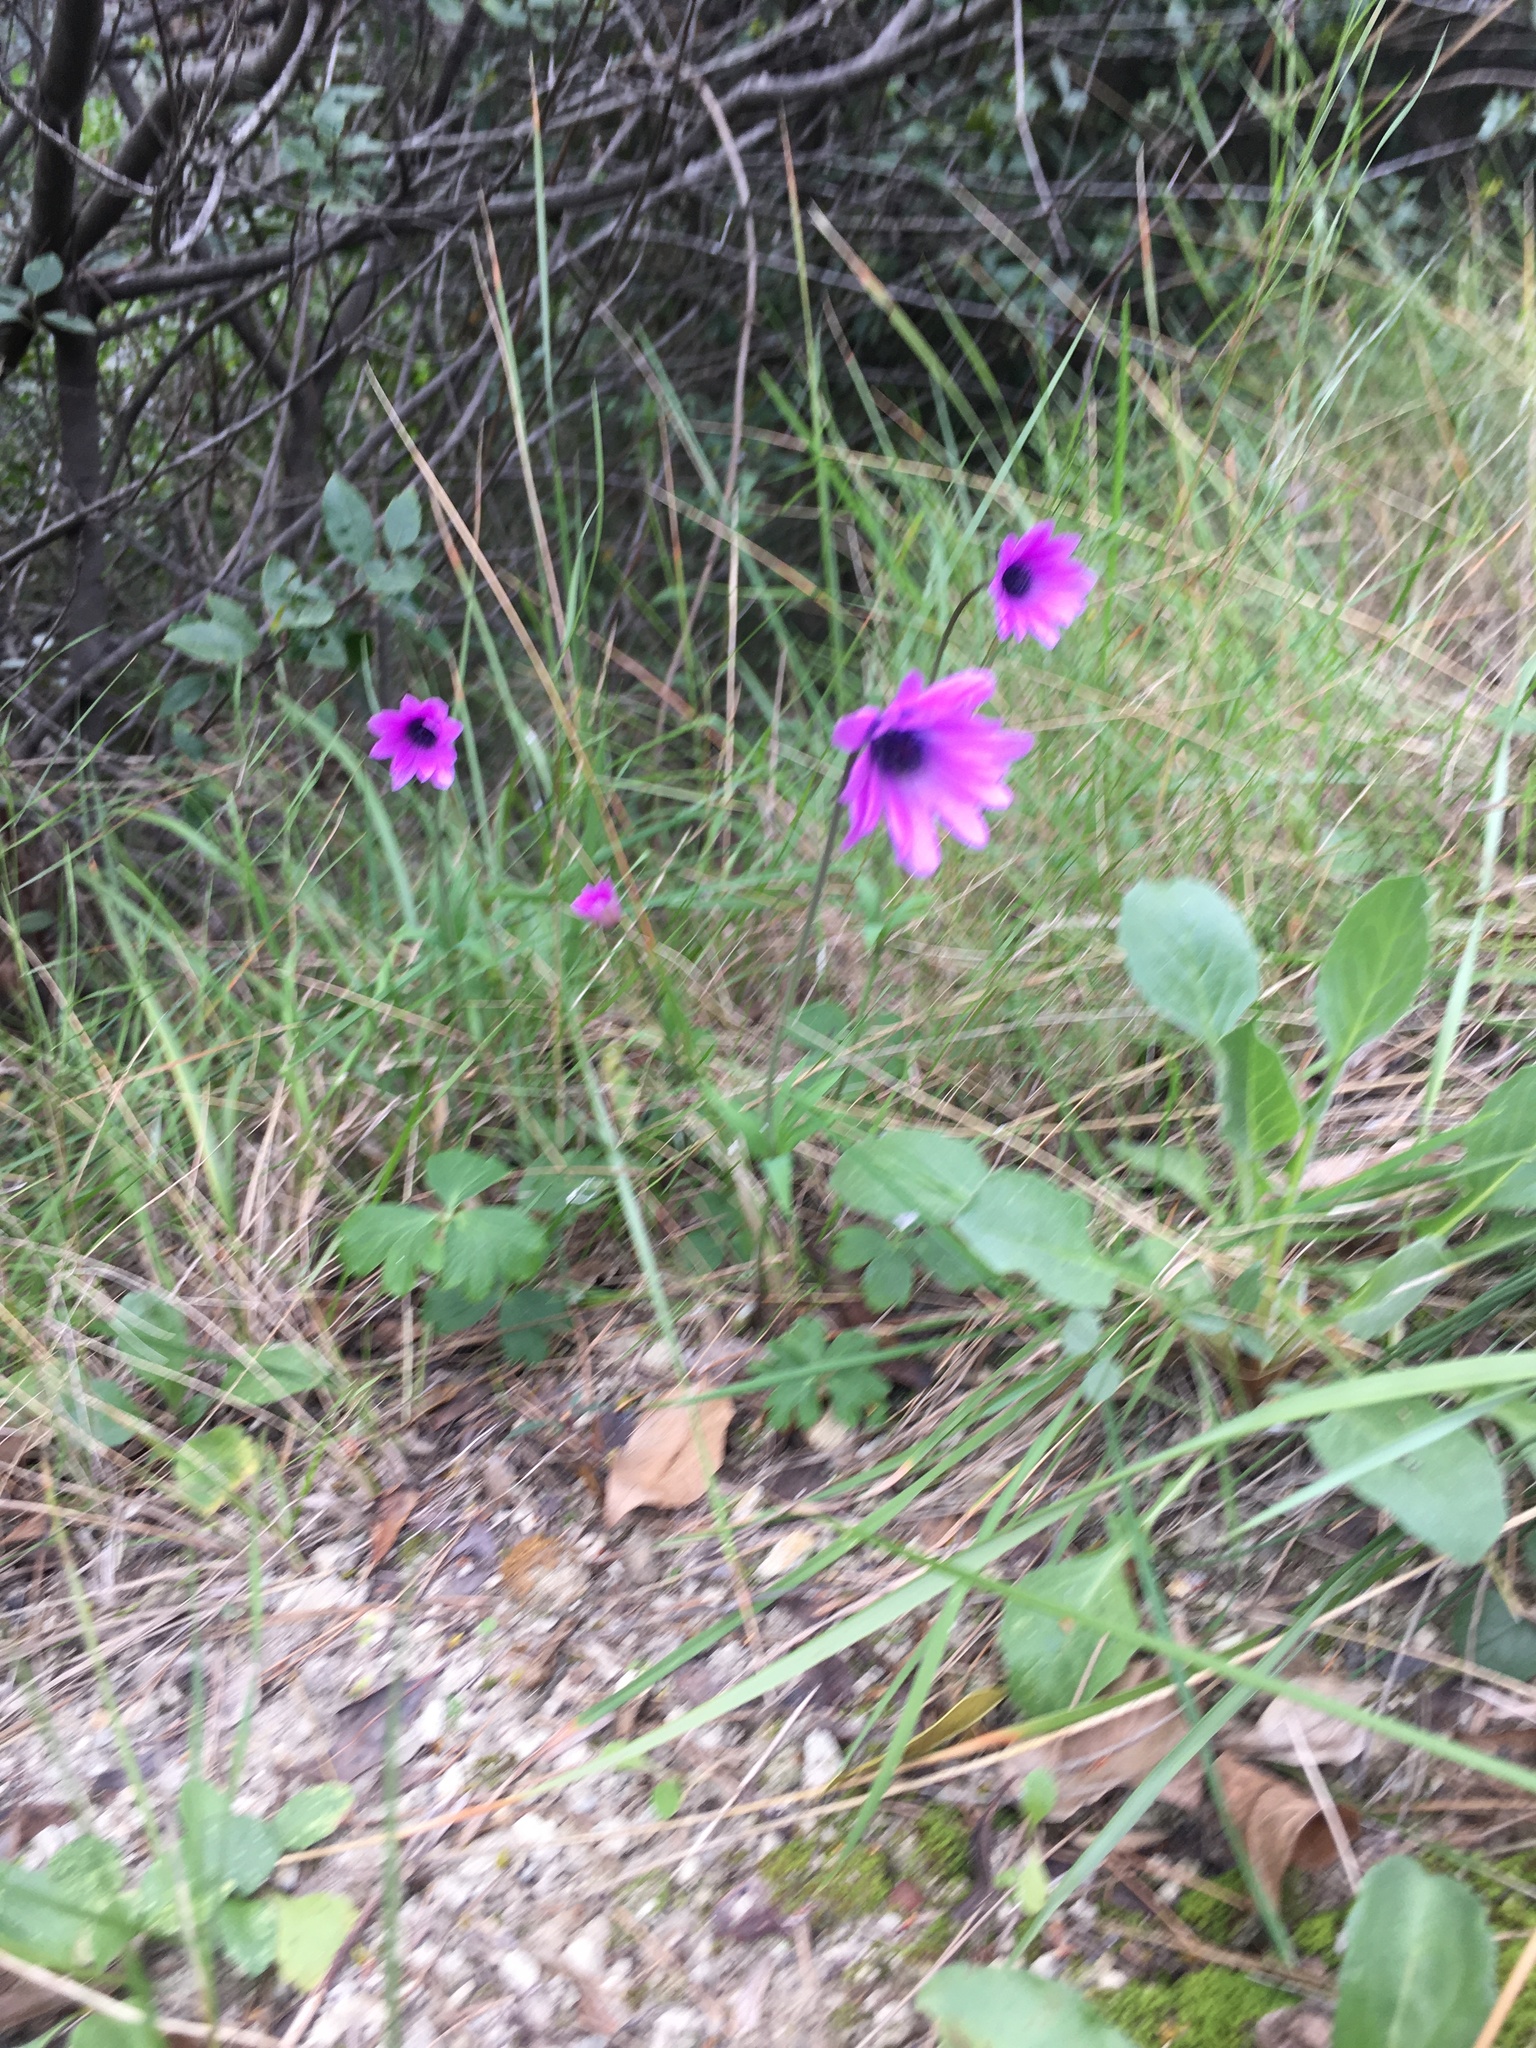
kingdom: Plantae
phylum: Tracheophyta
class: Magnoliopsida
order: Ranunculales
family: Ranunculaceae
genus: Anemone
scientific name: Anemone hortensis
